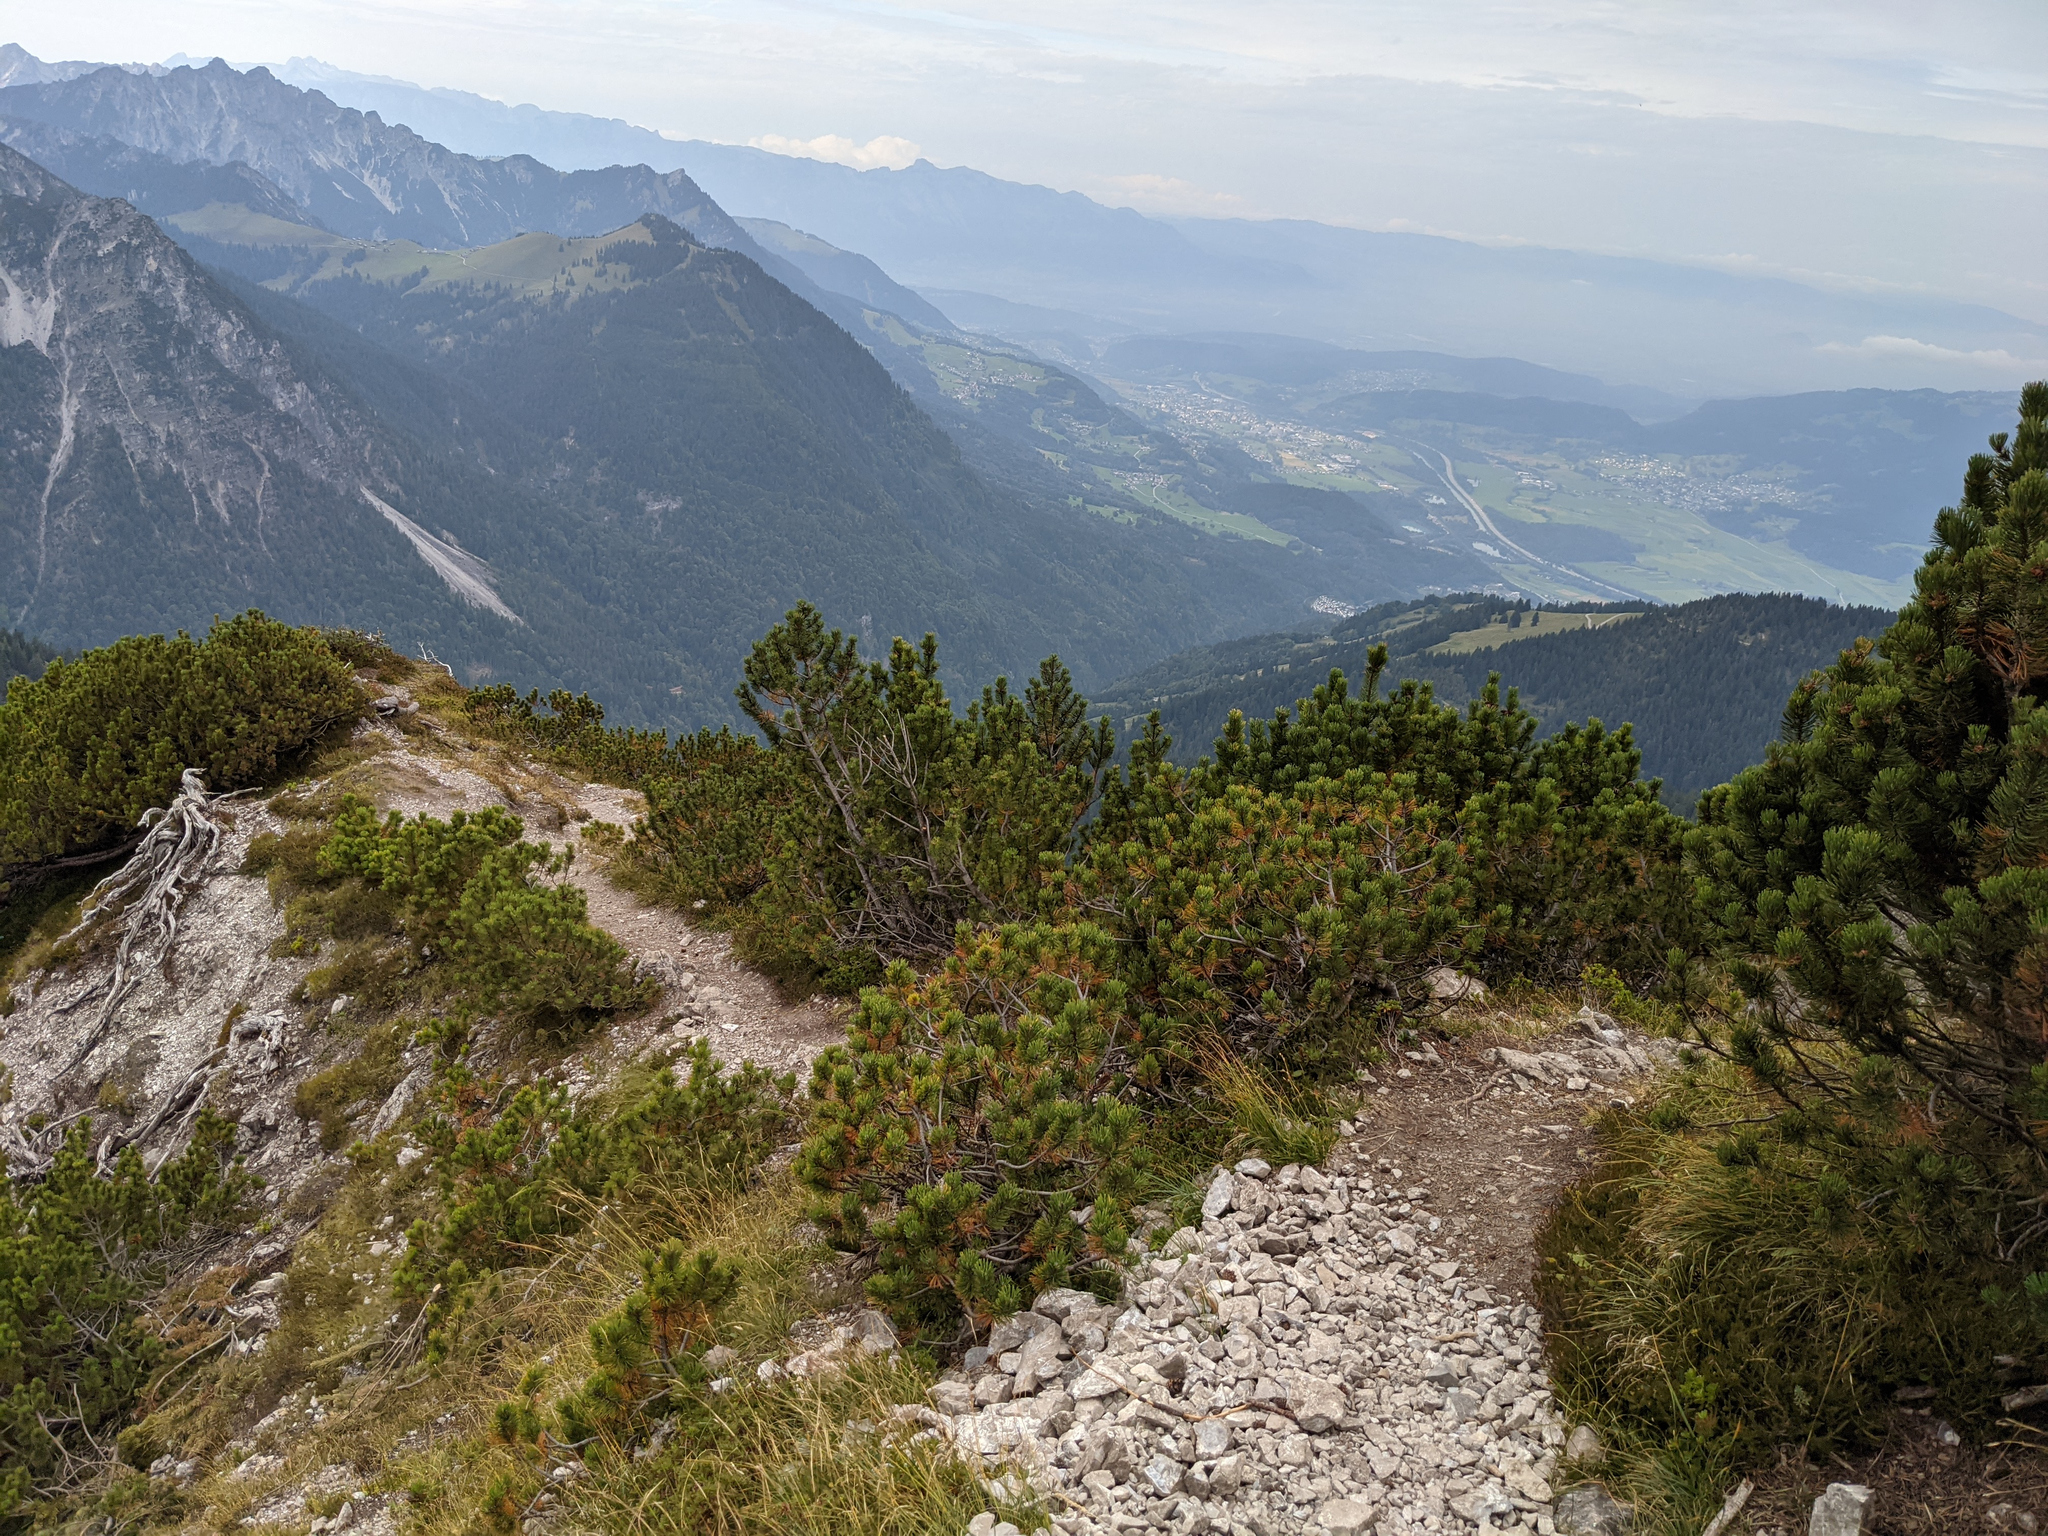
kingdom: Plantae
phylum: Tracheophyta
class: Pinopsida
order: Pinales
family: Pinaceae
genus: Pinus
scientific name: Pinus mugo
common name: Mugo pine
